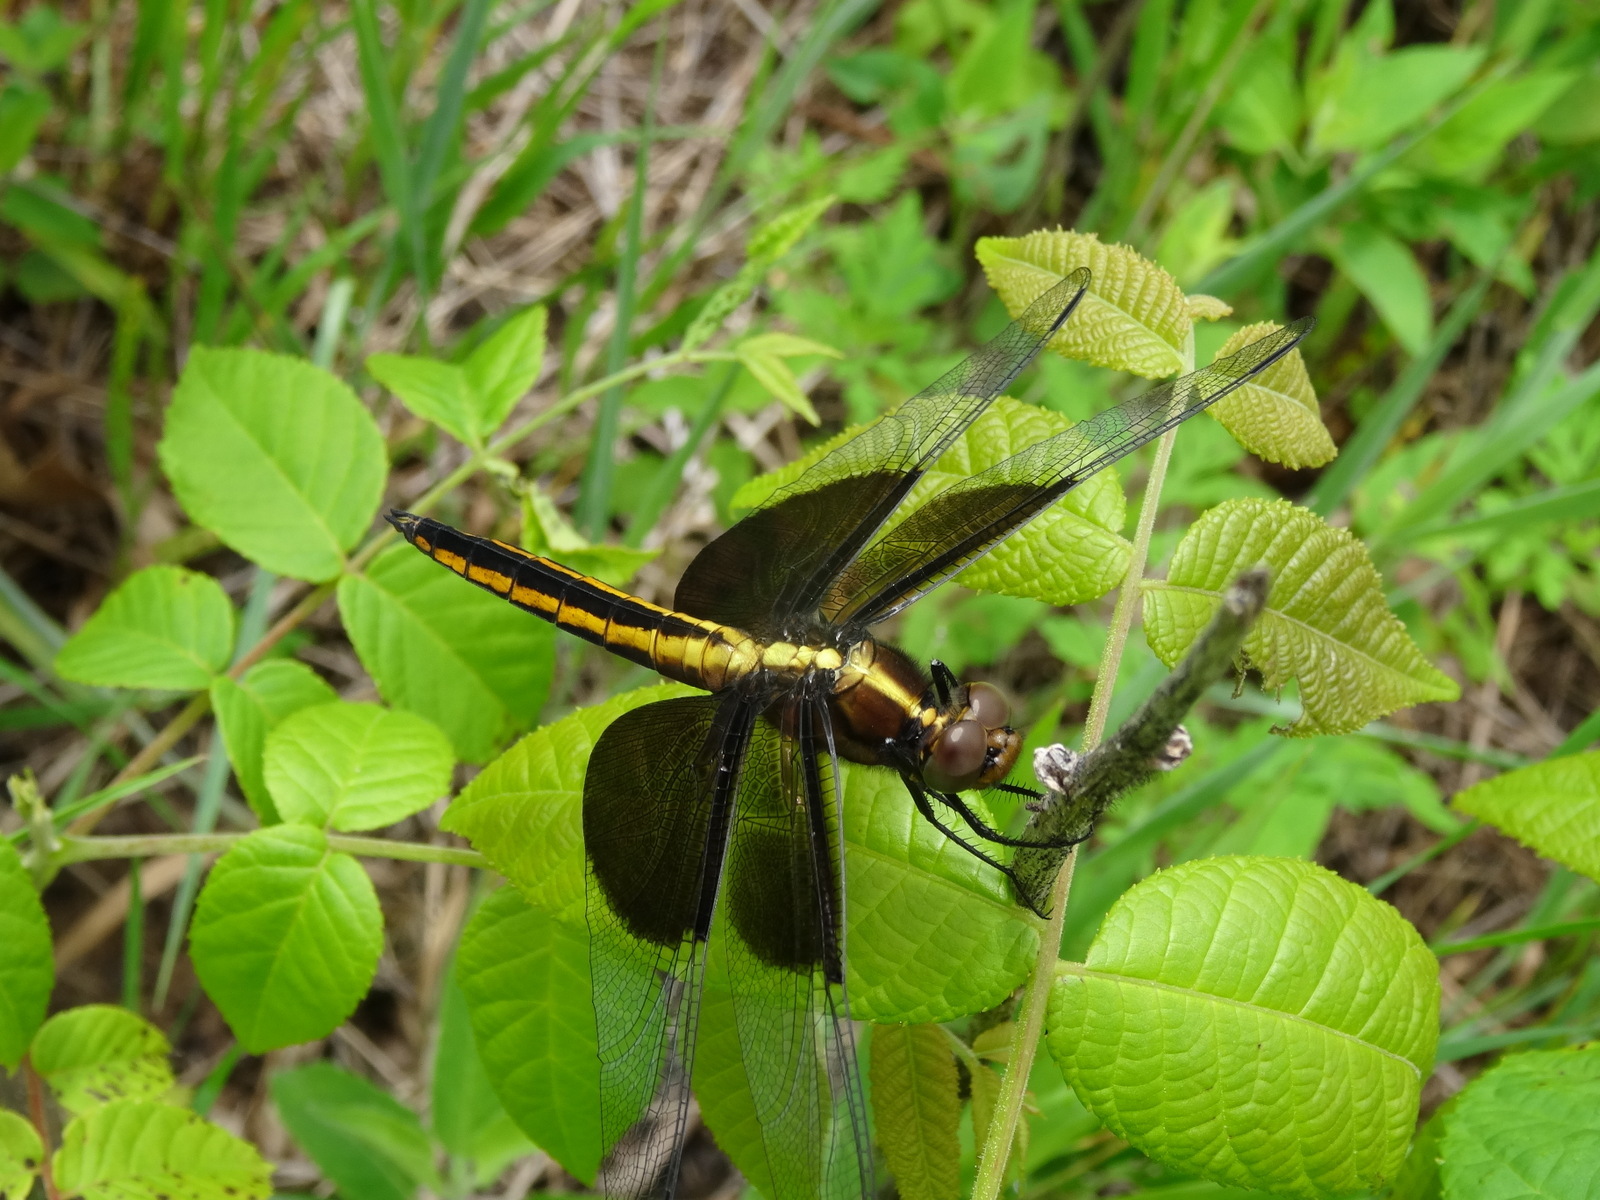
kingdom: Animalia
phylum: Arthropoda
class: Insecta
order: Odonata
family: Libellulidae
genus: Libellula
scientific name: Libellula luctuosa
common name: Widow skimmer
